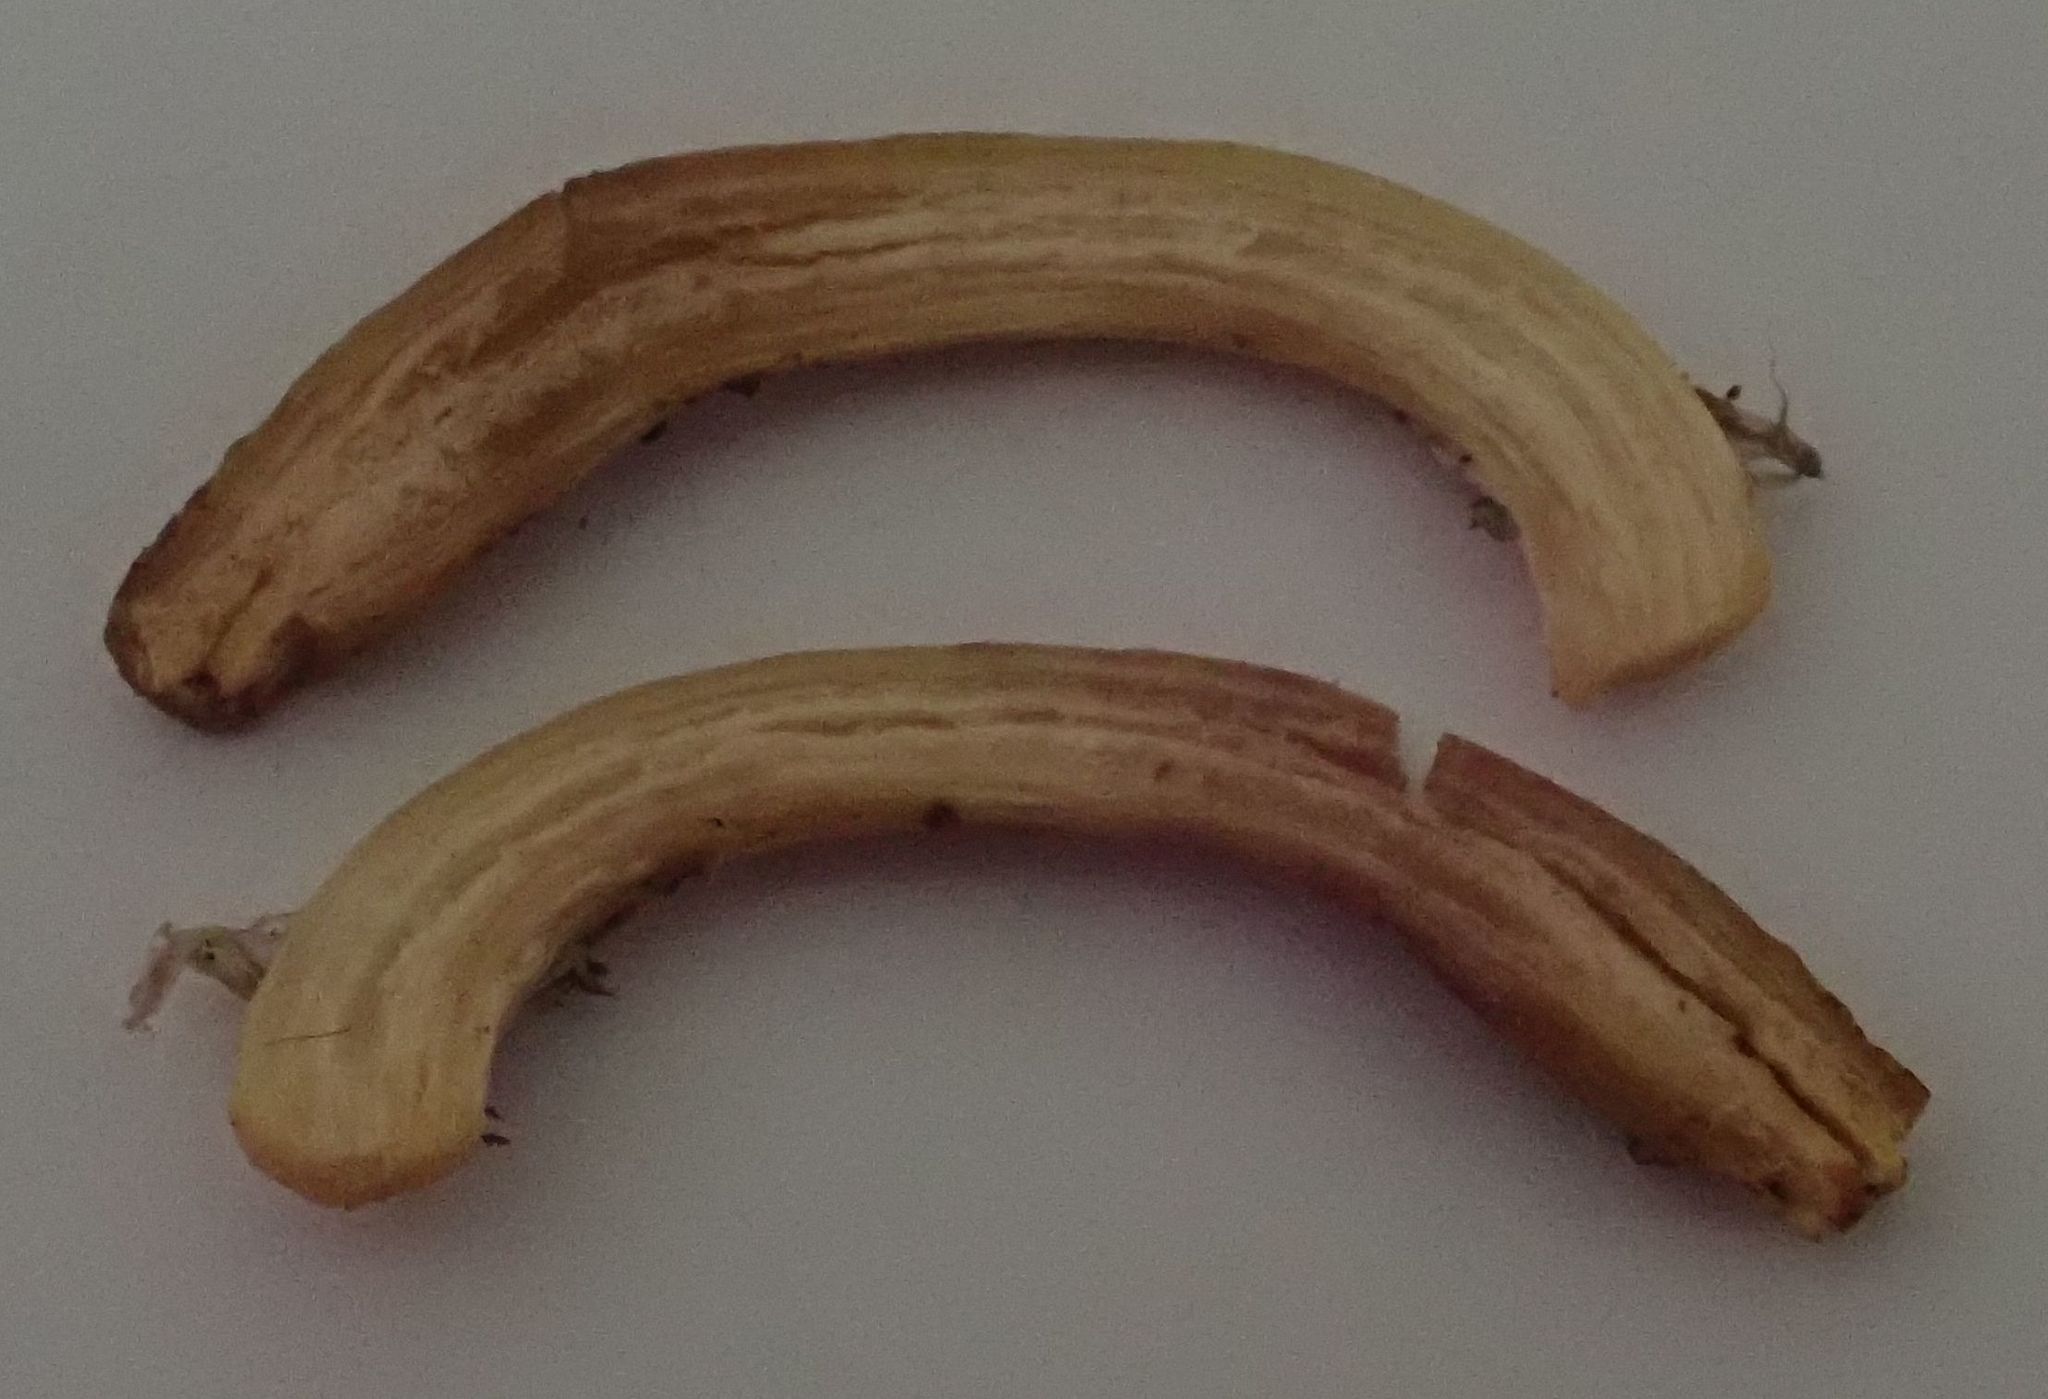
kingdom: Fungi
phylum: Basidiomycota
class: Agaricomycetes
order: Agaricales
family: Physalacriaceae
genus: Armillaria
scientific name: Armillaria novae-zelandiae
